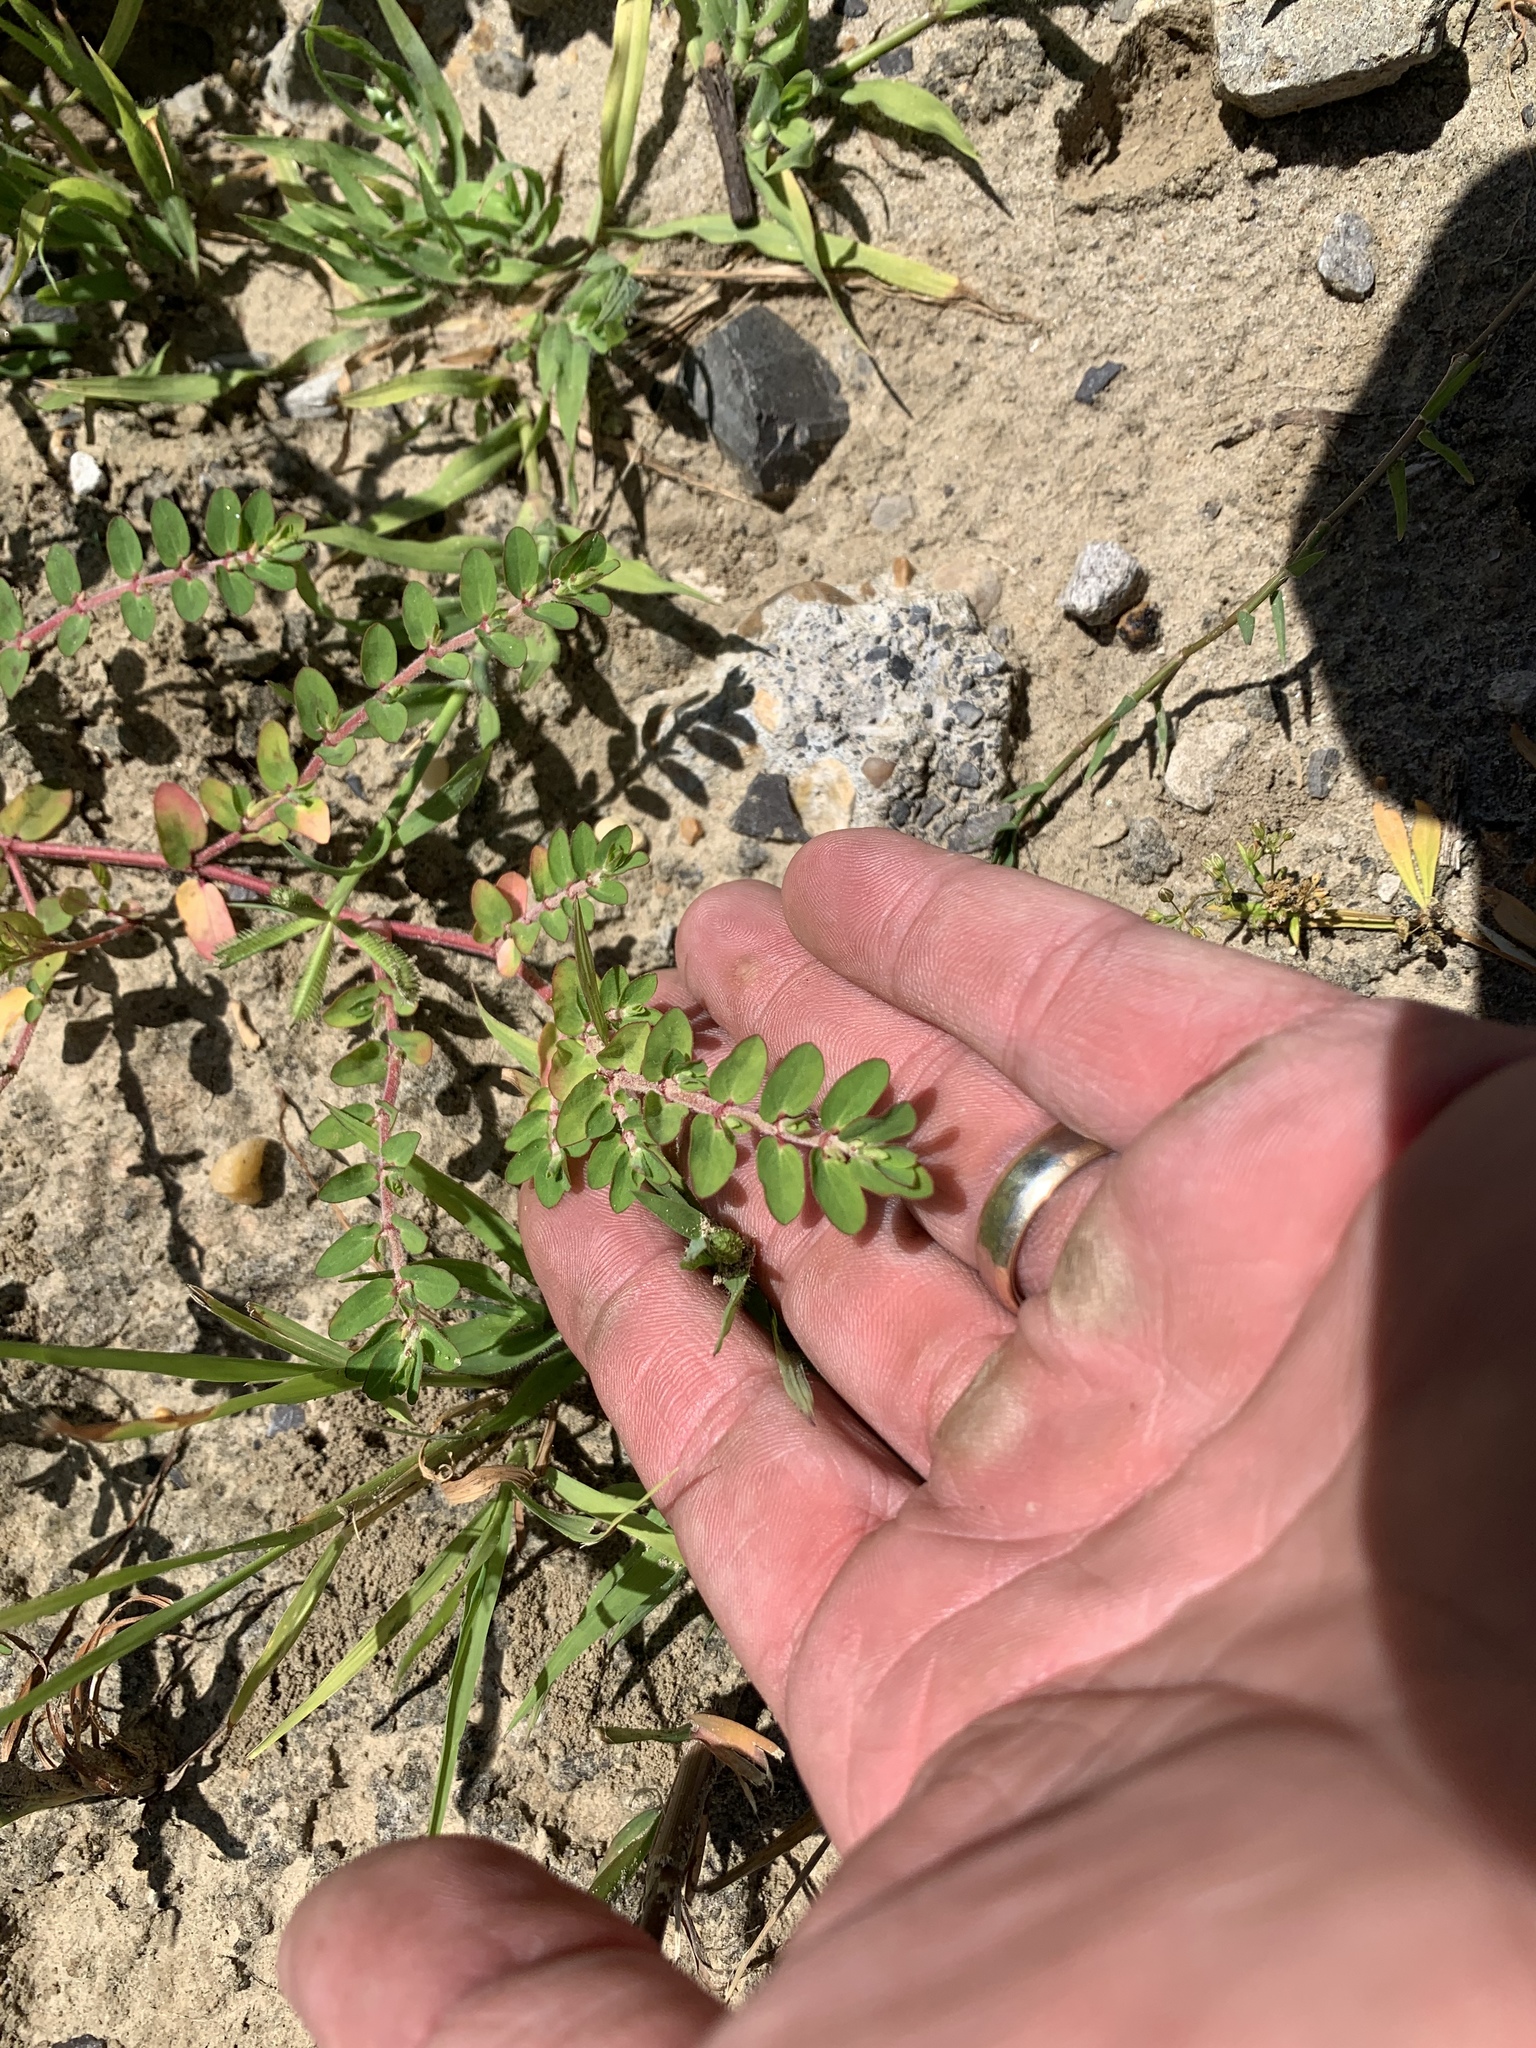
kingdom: Plantae
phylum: Tracheophyta
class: Magnoliopsida
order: Malpighiales
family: Euphorbiaceae
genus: Euphorbia
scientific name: Euphorbia humistrata
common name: Hairy spreading spurge
